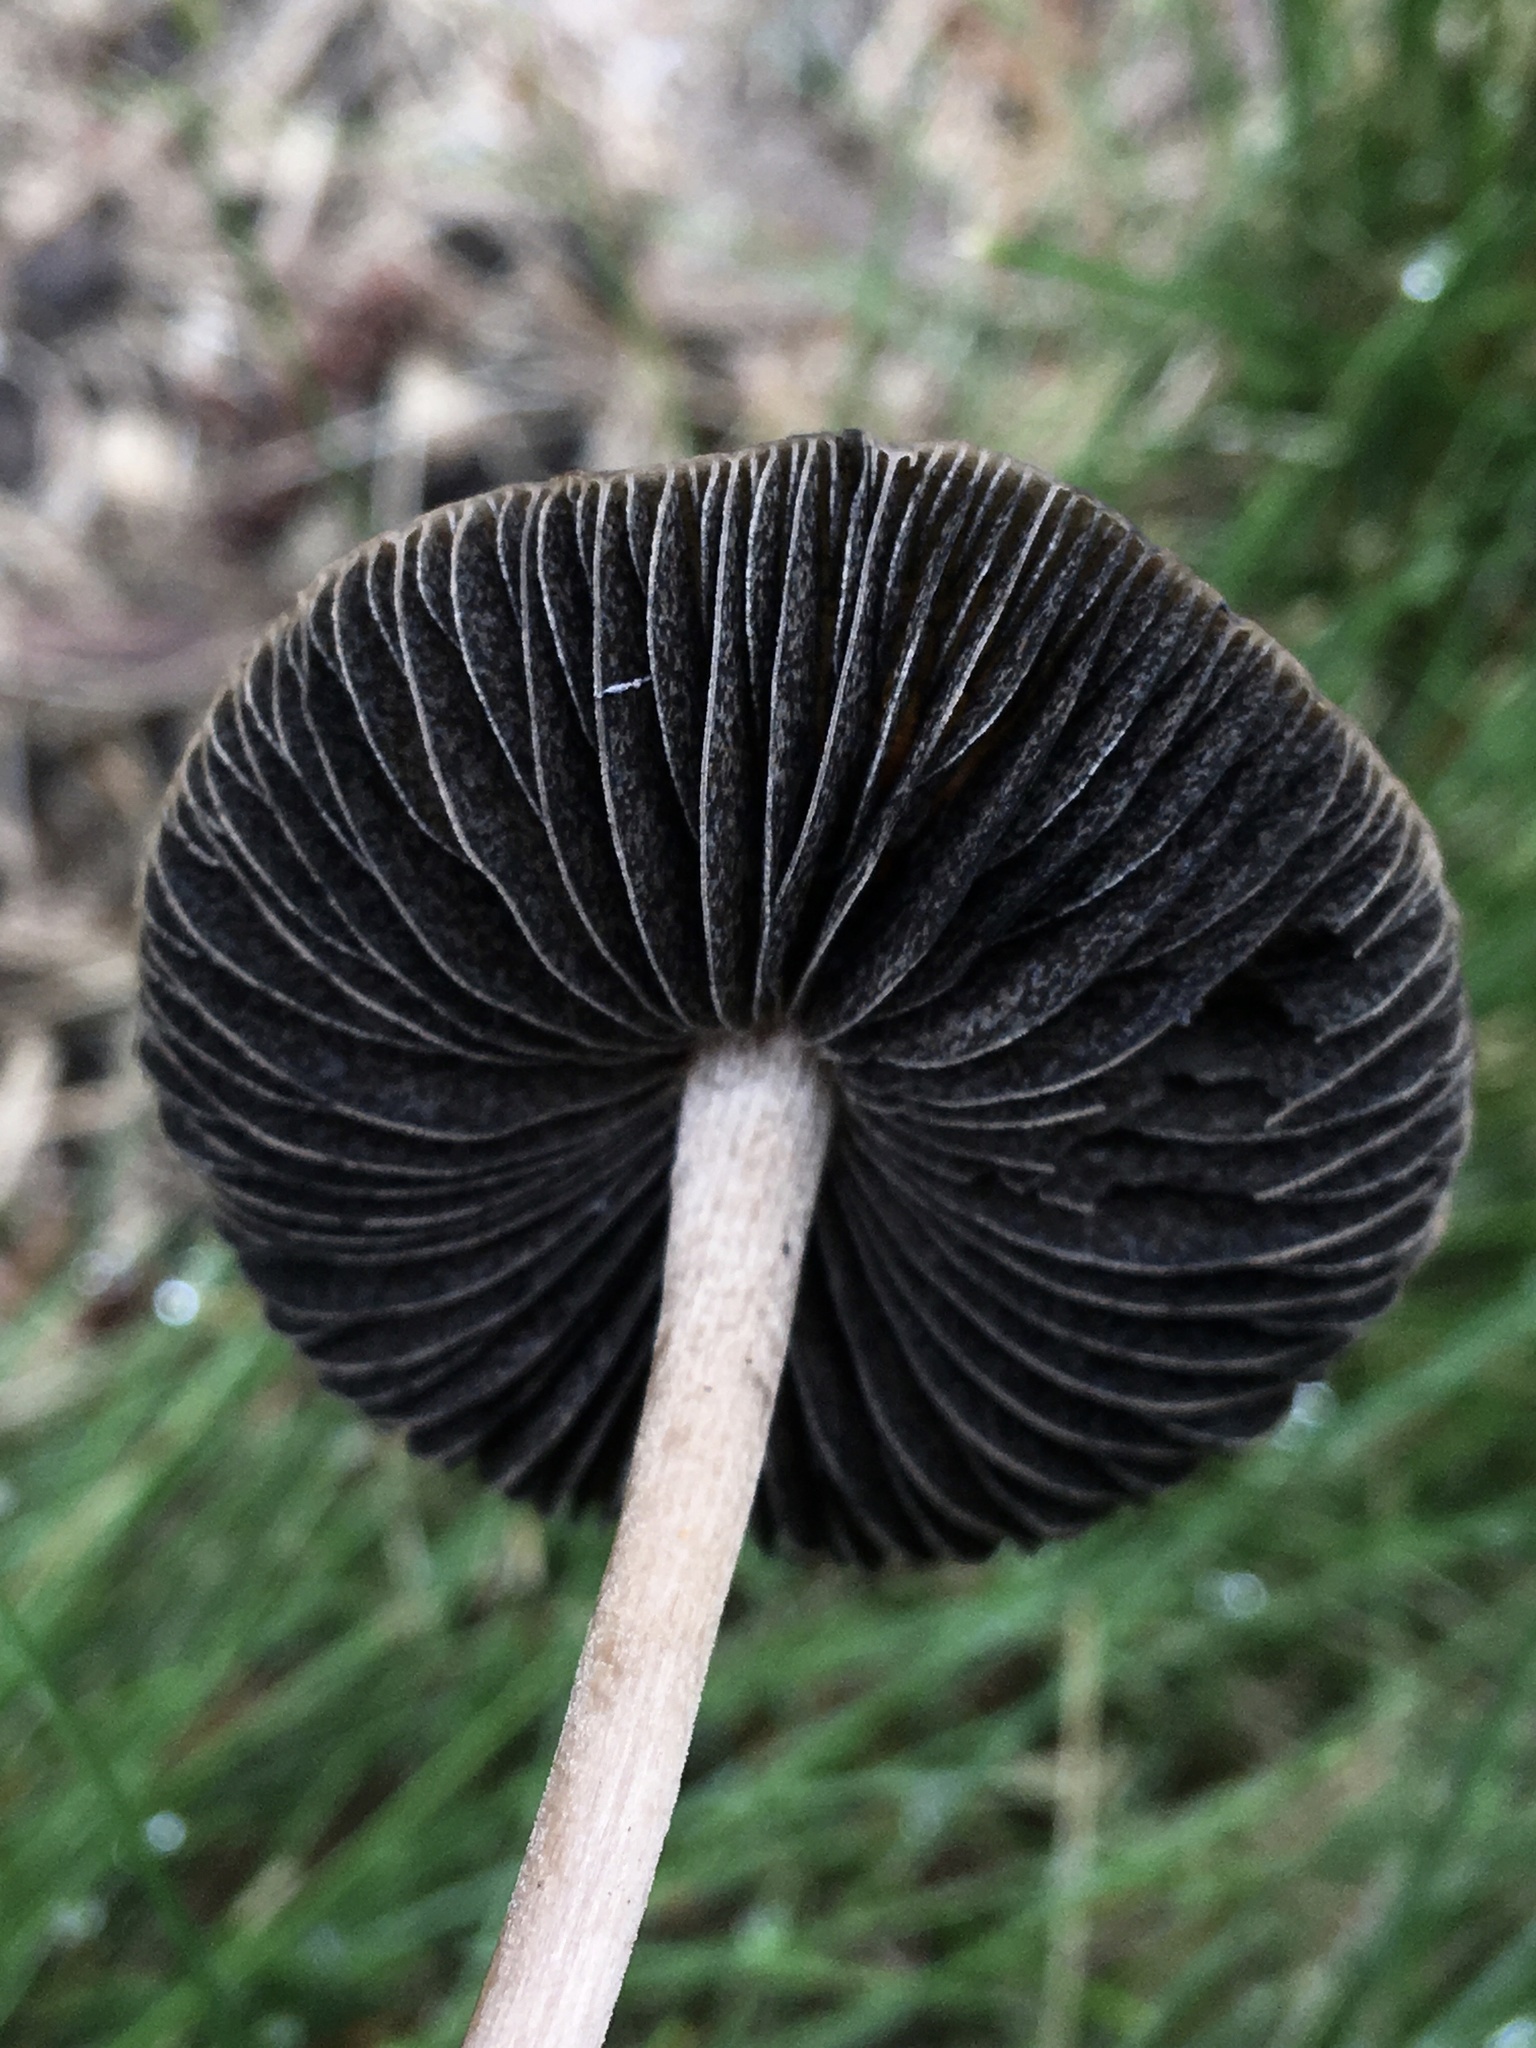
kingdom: Fungi
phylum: Basidiomycota
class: Agaricomycetes
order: Agaricales
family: Bolbitiaceae
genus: Panaeolus
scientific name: Panaeolus cinctulus
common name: Banded mottlegill
